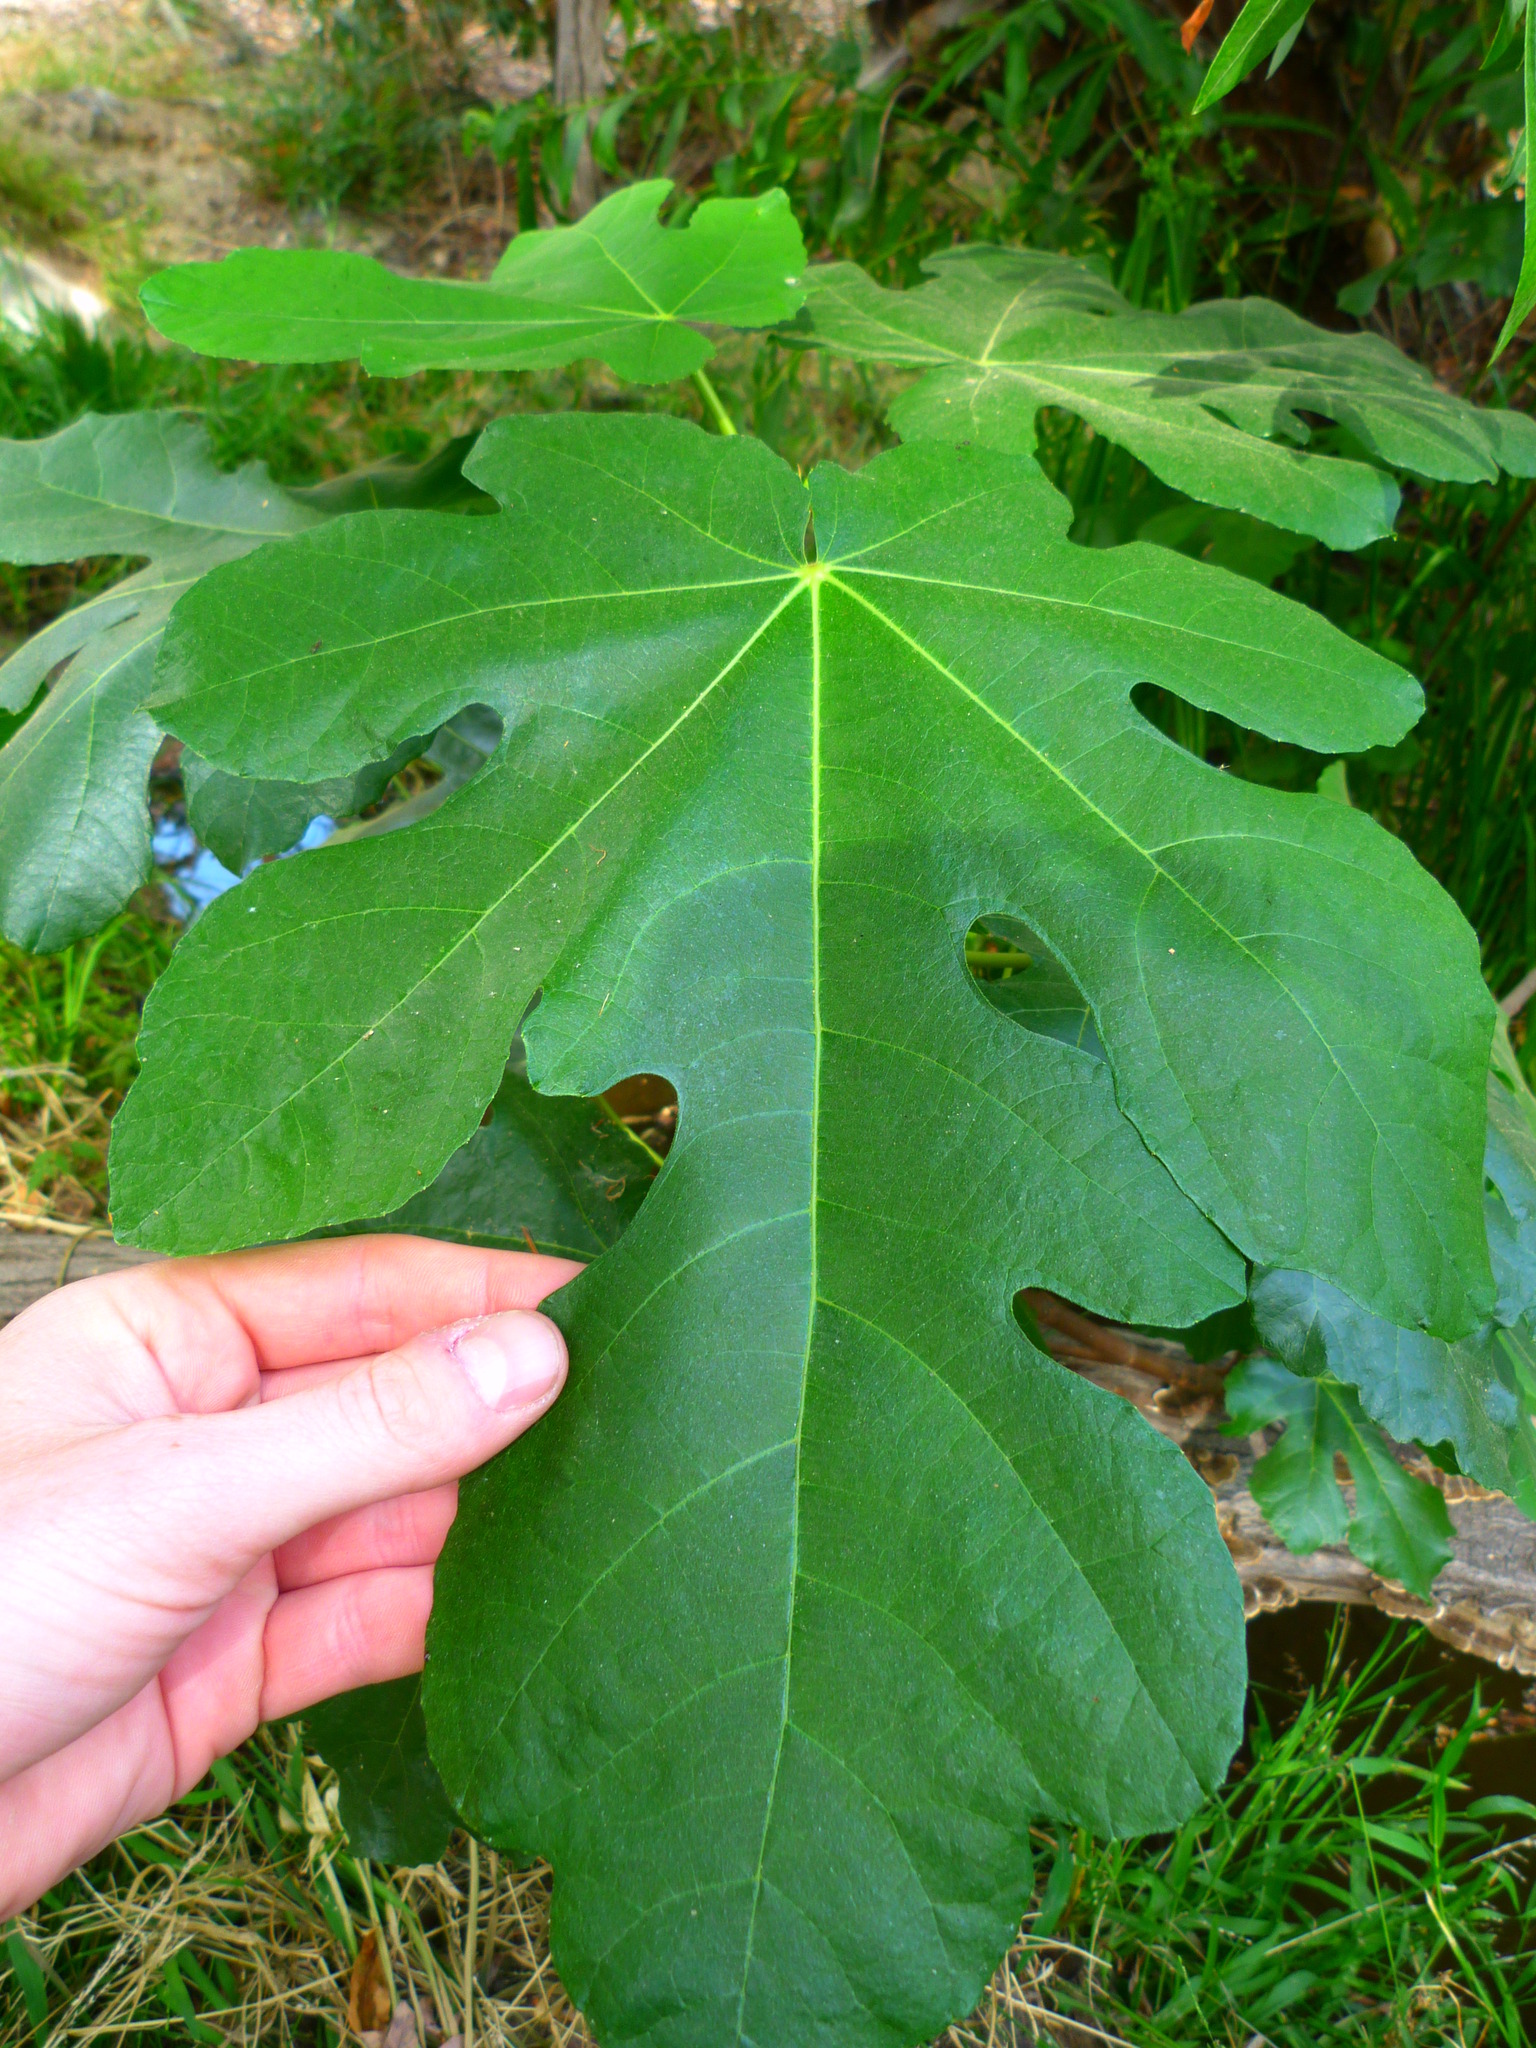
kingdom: Plantae
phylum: Tracheophyta
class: Magnoliopsida
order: Rosales
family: Moraceae
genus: Ficus
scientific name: Ficus carica
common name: Fig
